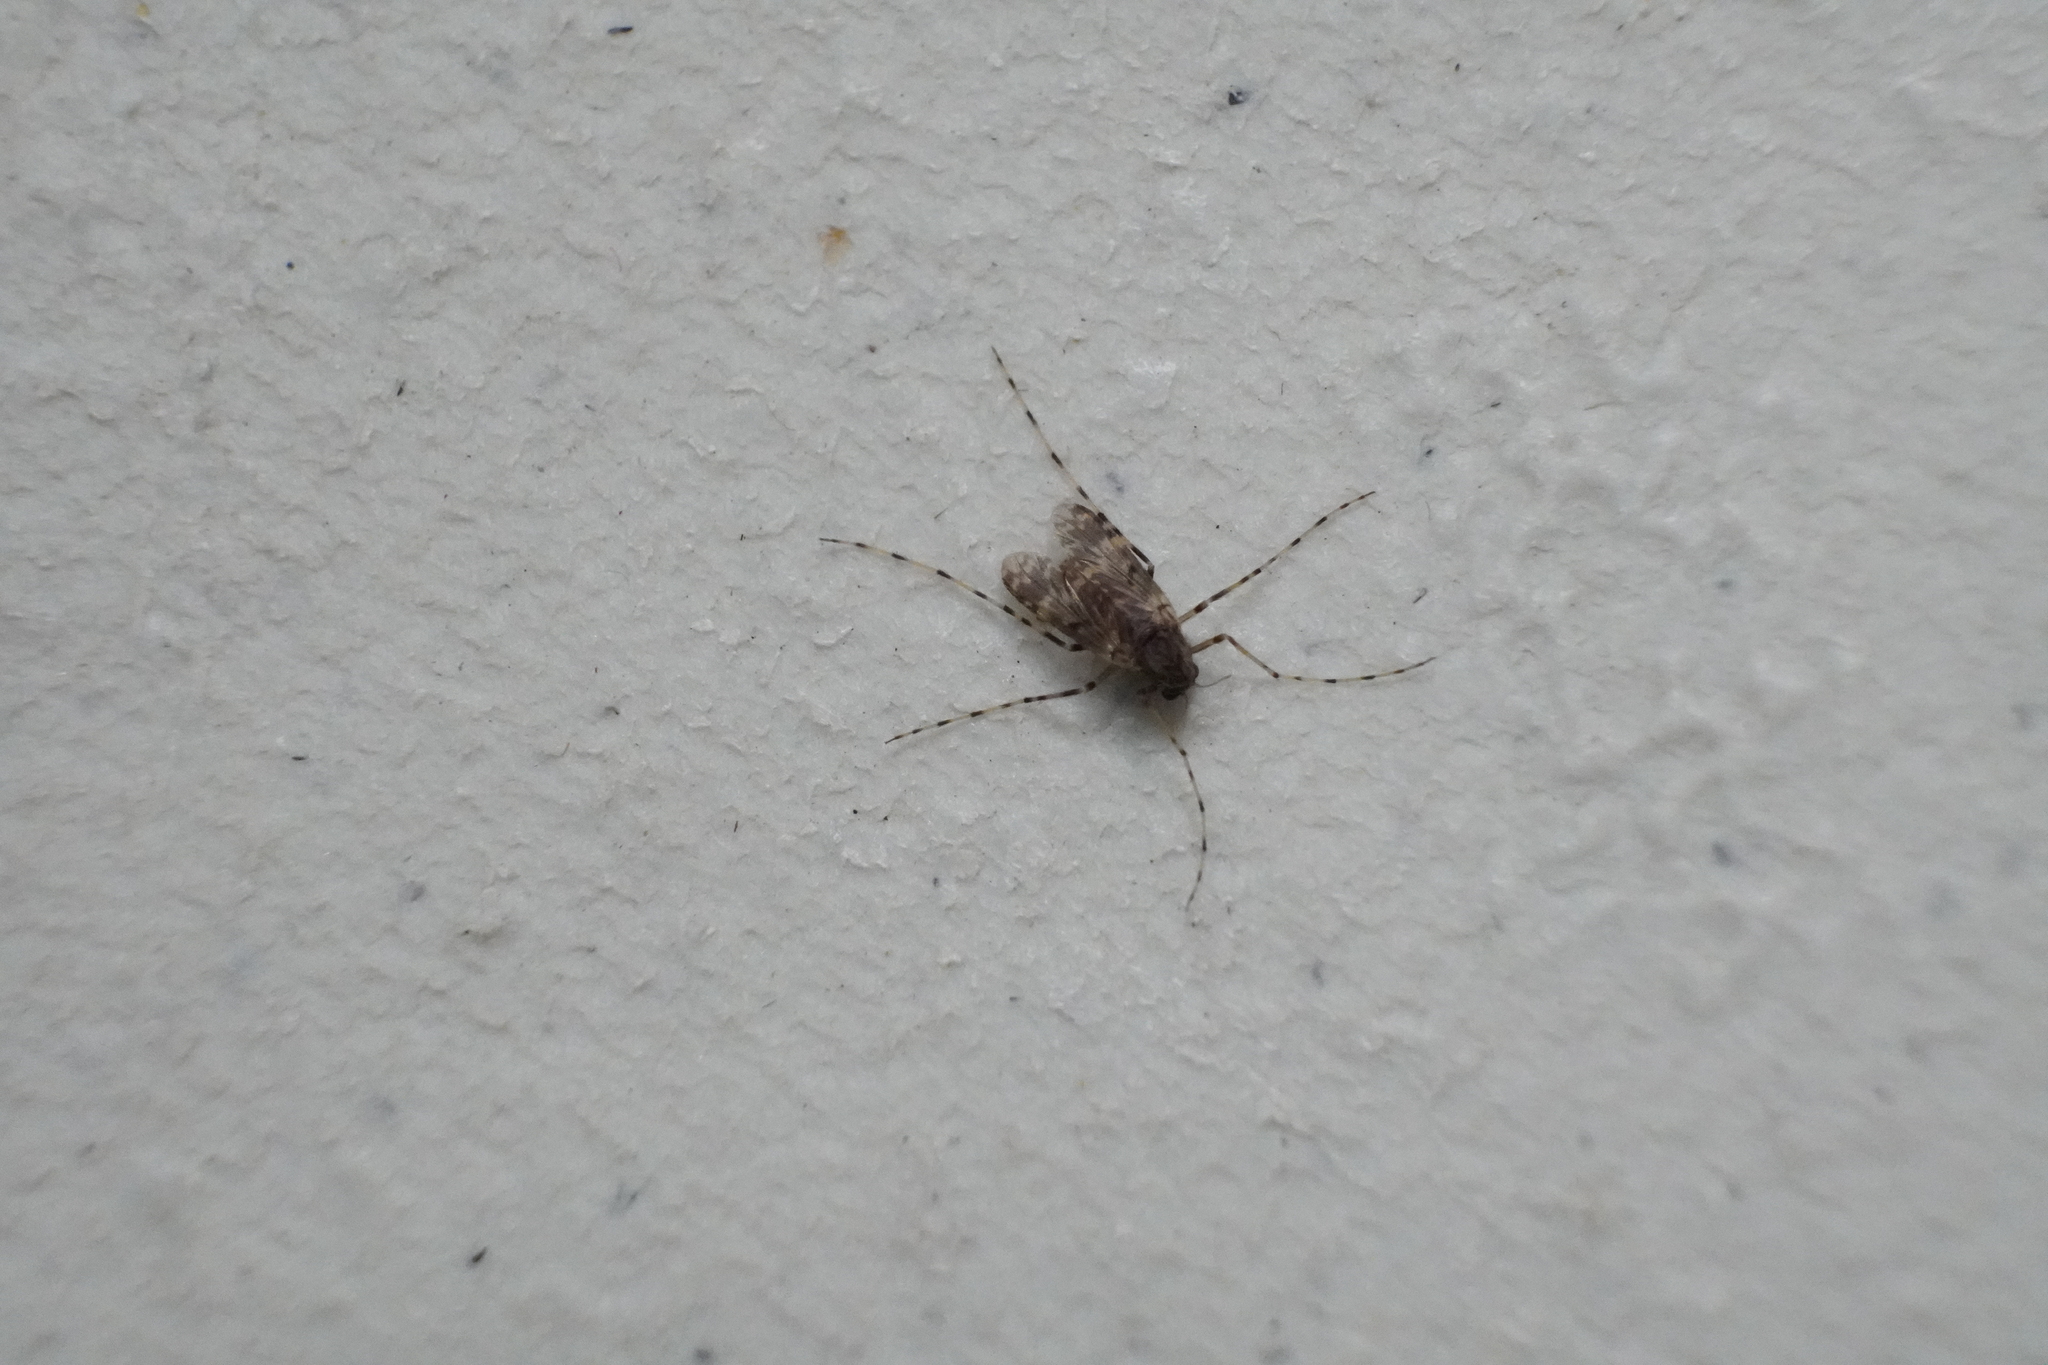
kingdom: Animalia
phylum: Arthropoda
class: Insecta
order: Diptera
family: Chironomidae
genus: Ablabesmyia
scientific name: Ablabesmyia annulata
